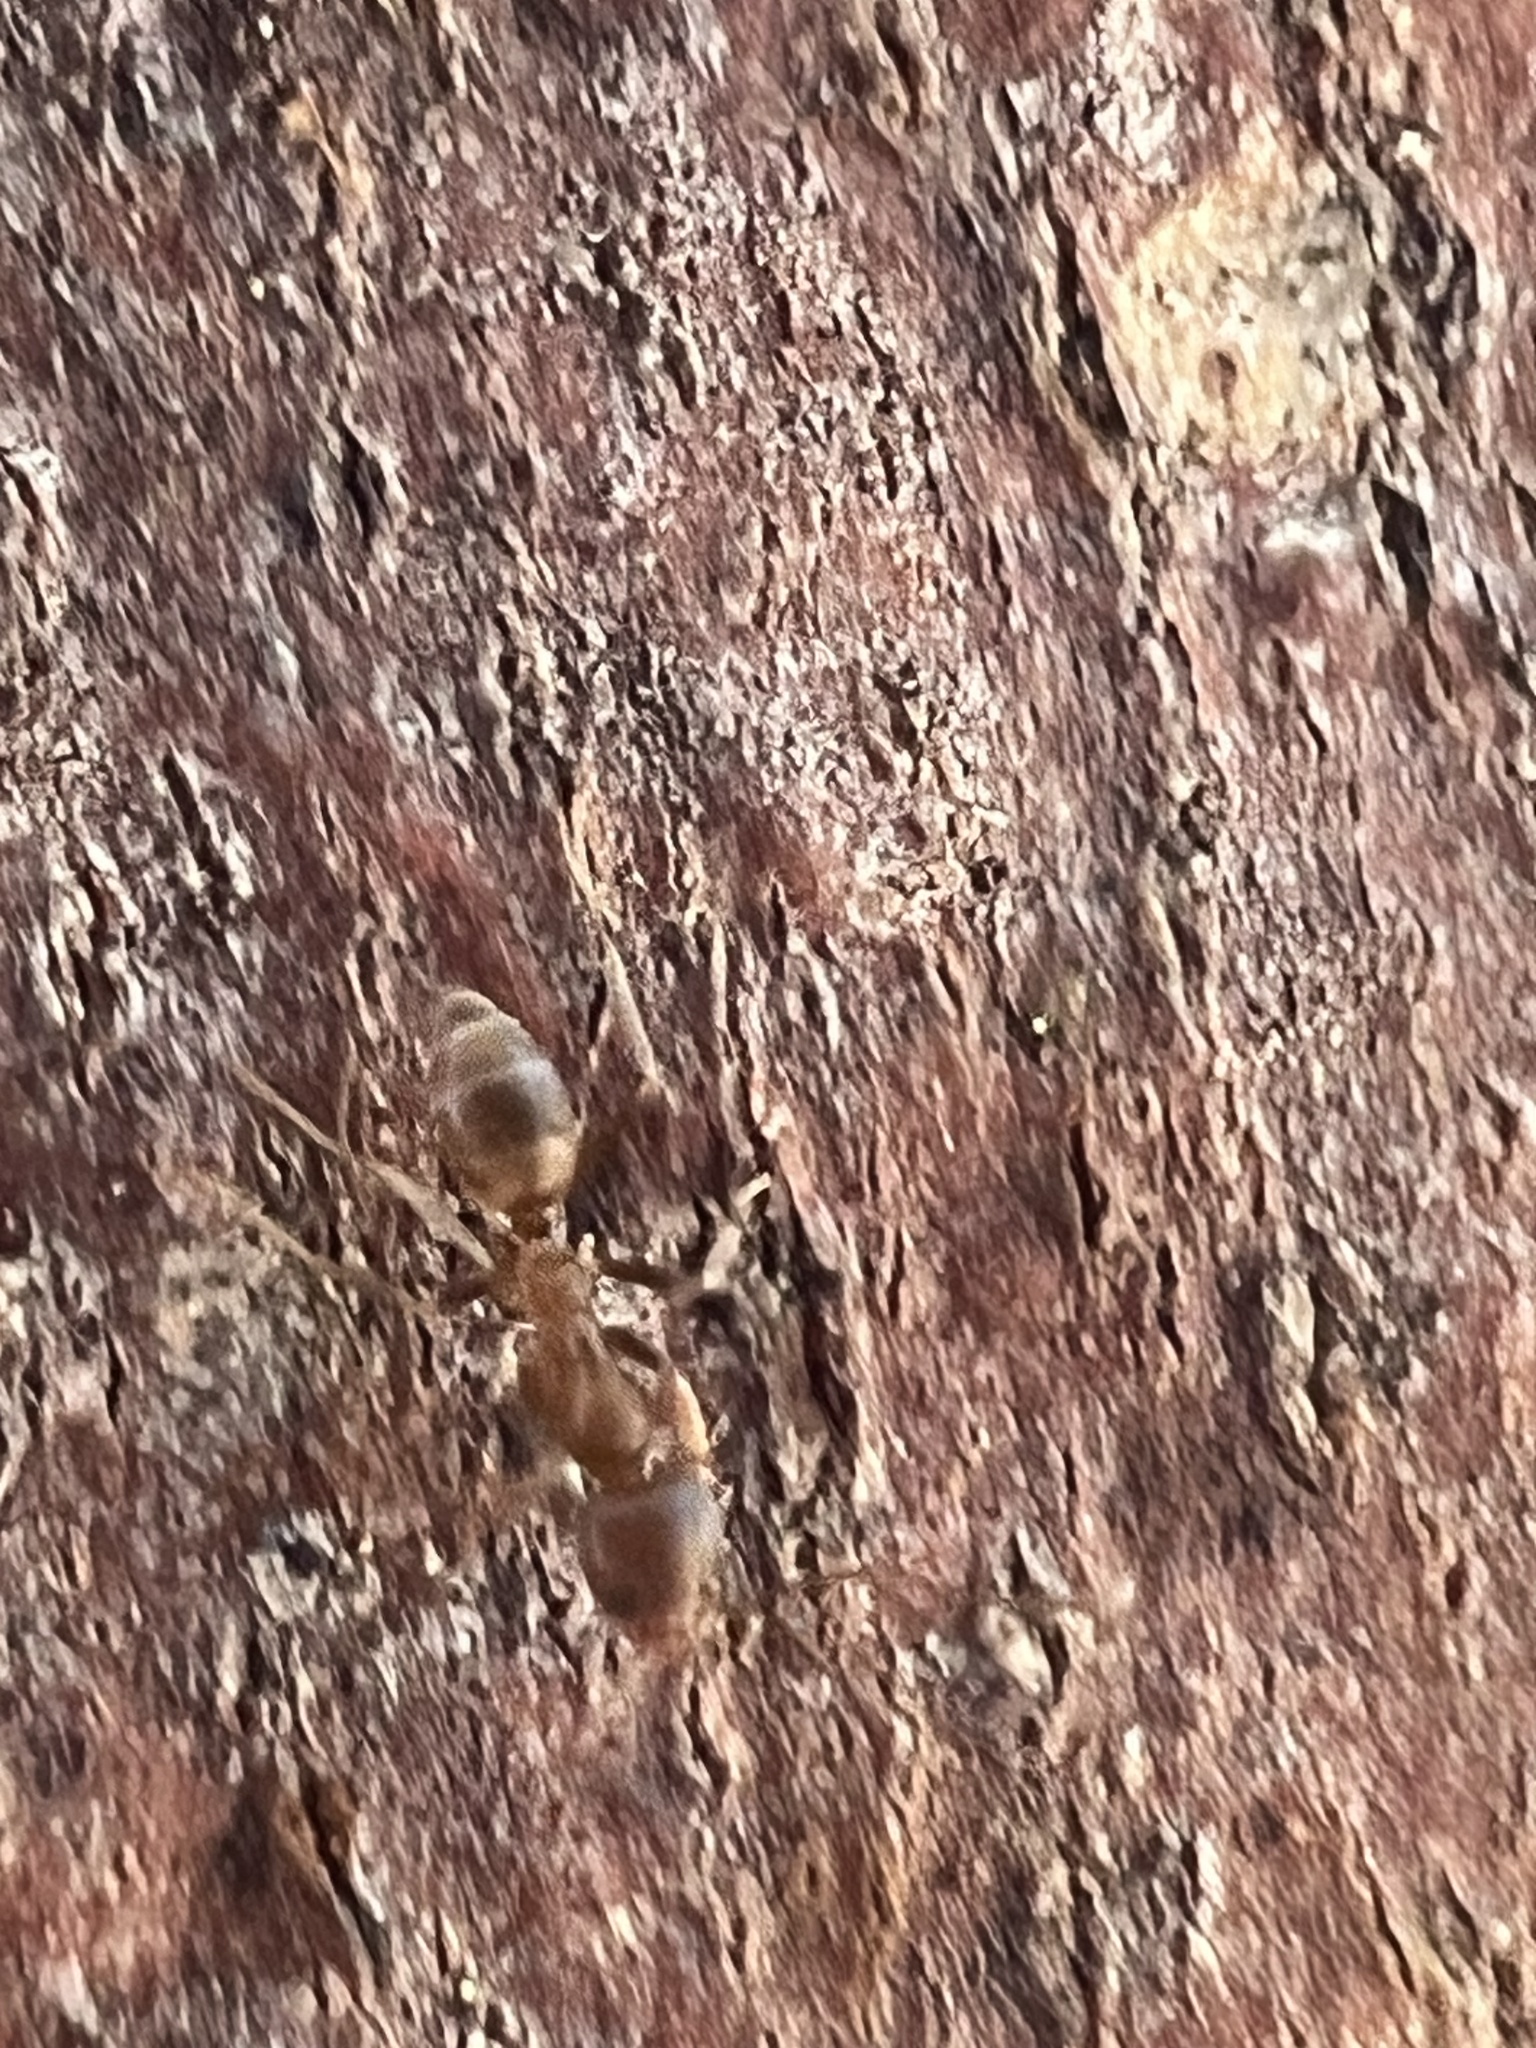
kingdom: Animalia
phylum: Arthropoda
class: Insecta
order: Hymenoptera
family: Formicidae
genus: Linepithema
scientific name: Linepithema humile
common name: Argentine ant
